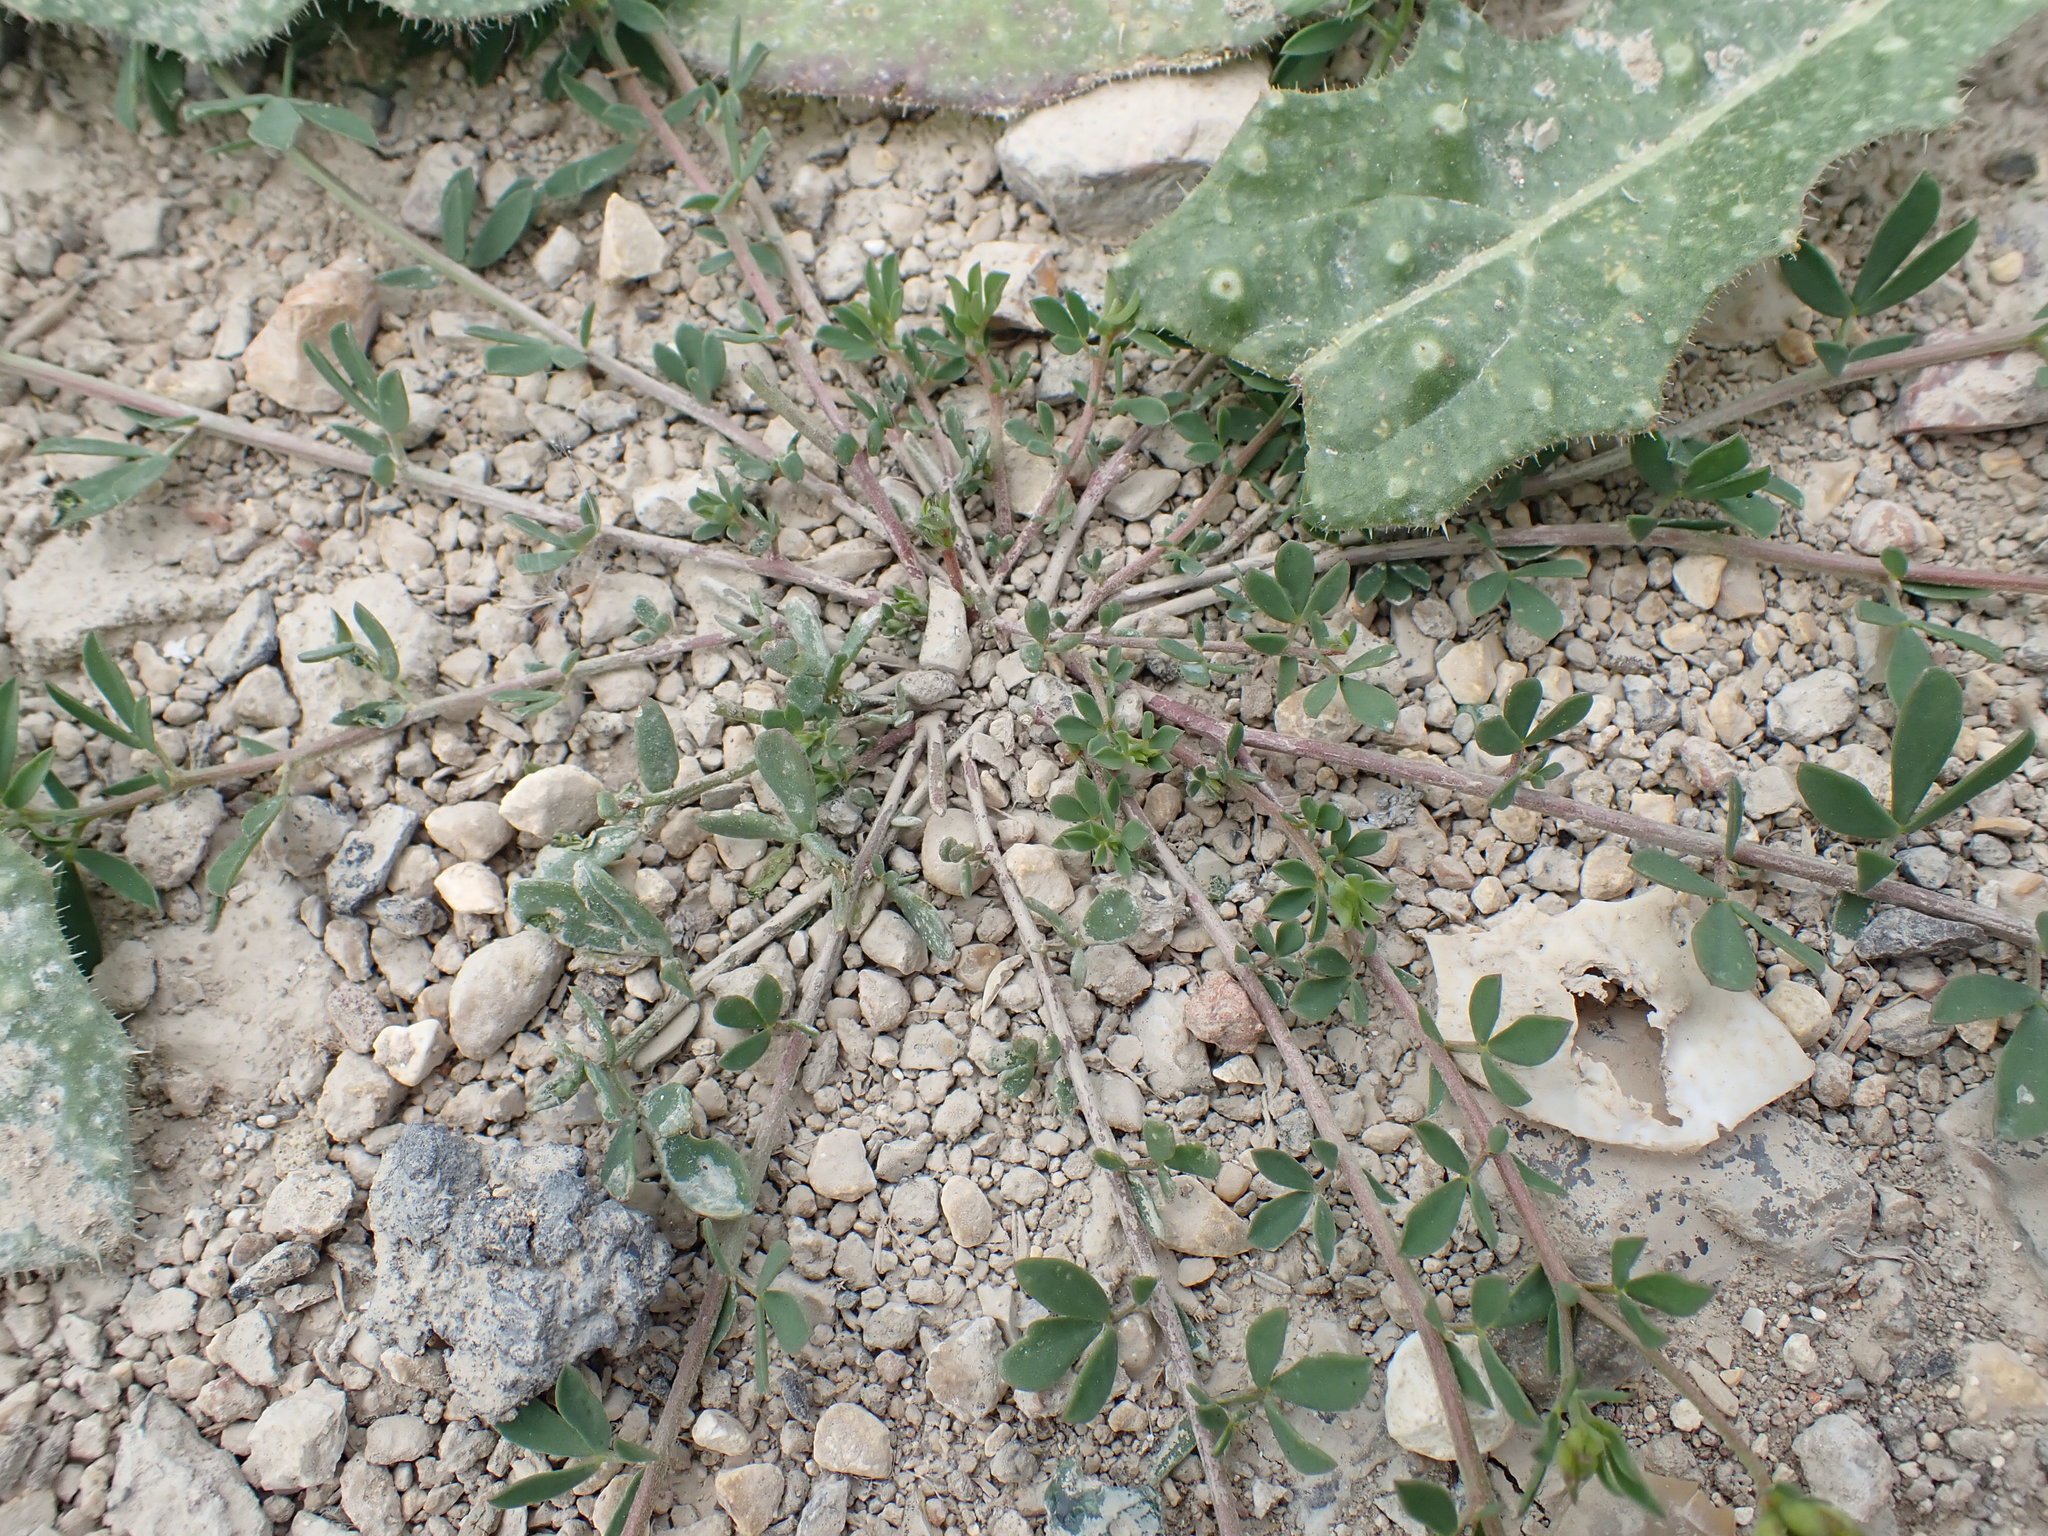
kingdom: Plantae
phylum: Tracheophyta
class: Magnoliopsida
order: Fabales
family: Fabaceae
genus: Lotus
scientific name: Lotus tenuis
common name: Narrow-leaved bird's-foot-trefoil
